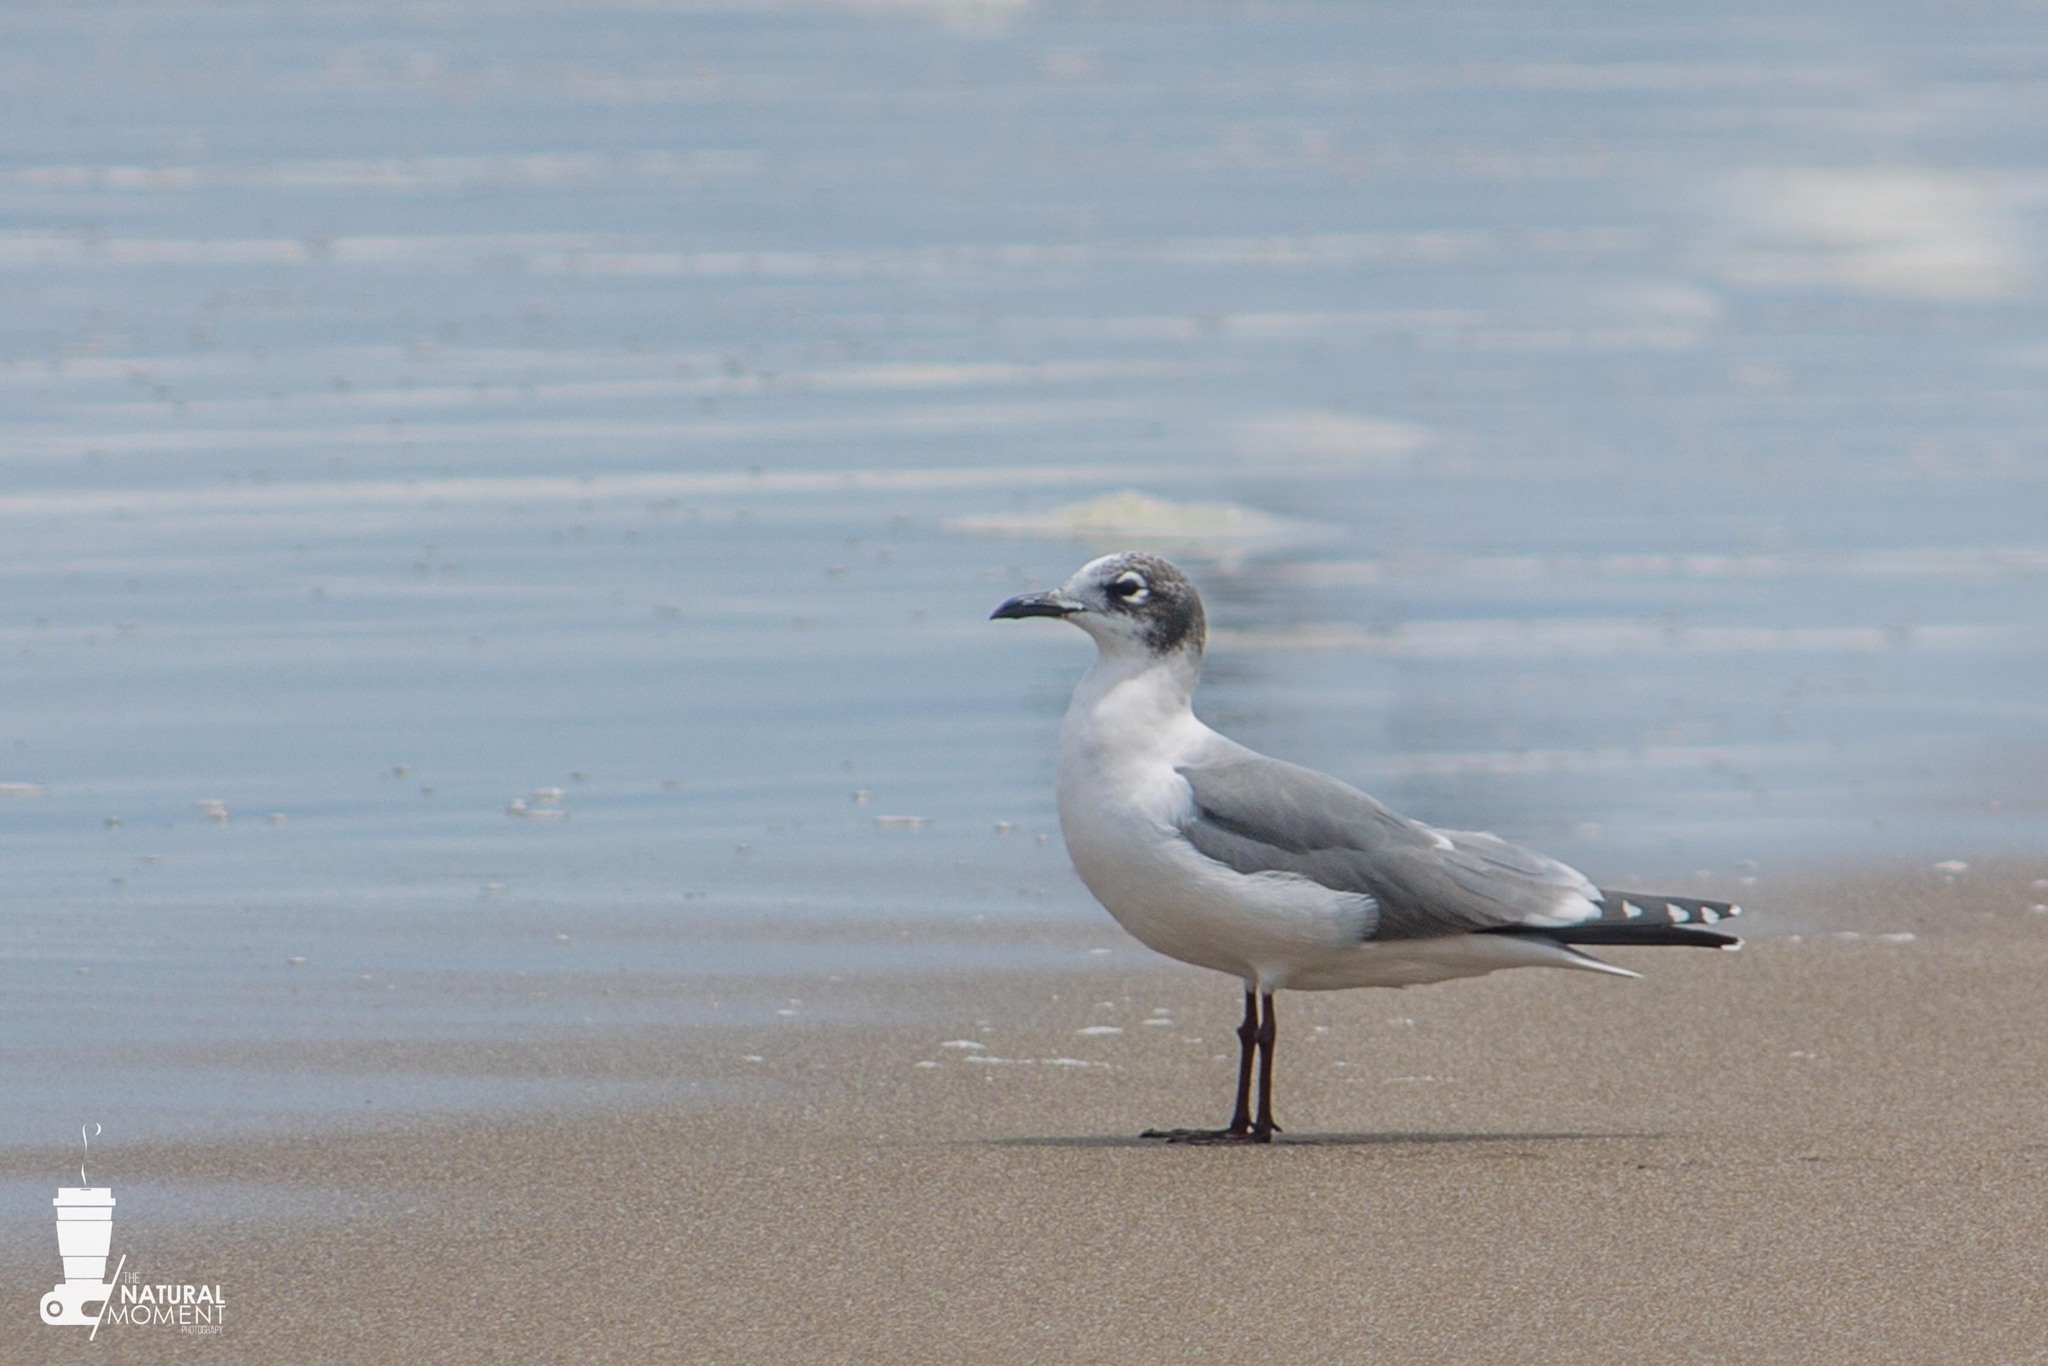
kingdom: Animalia
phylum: Chordata
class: Aves
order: Charadriiformes
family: Laridae
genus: Leucophaeus
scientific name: Leucophaeus pipixcan
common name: Franklin's gull
